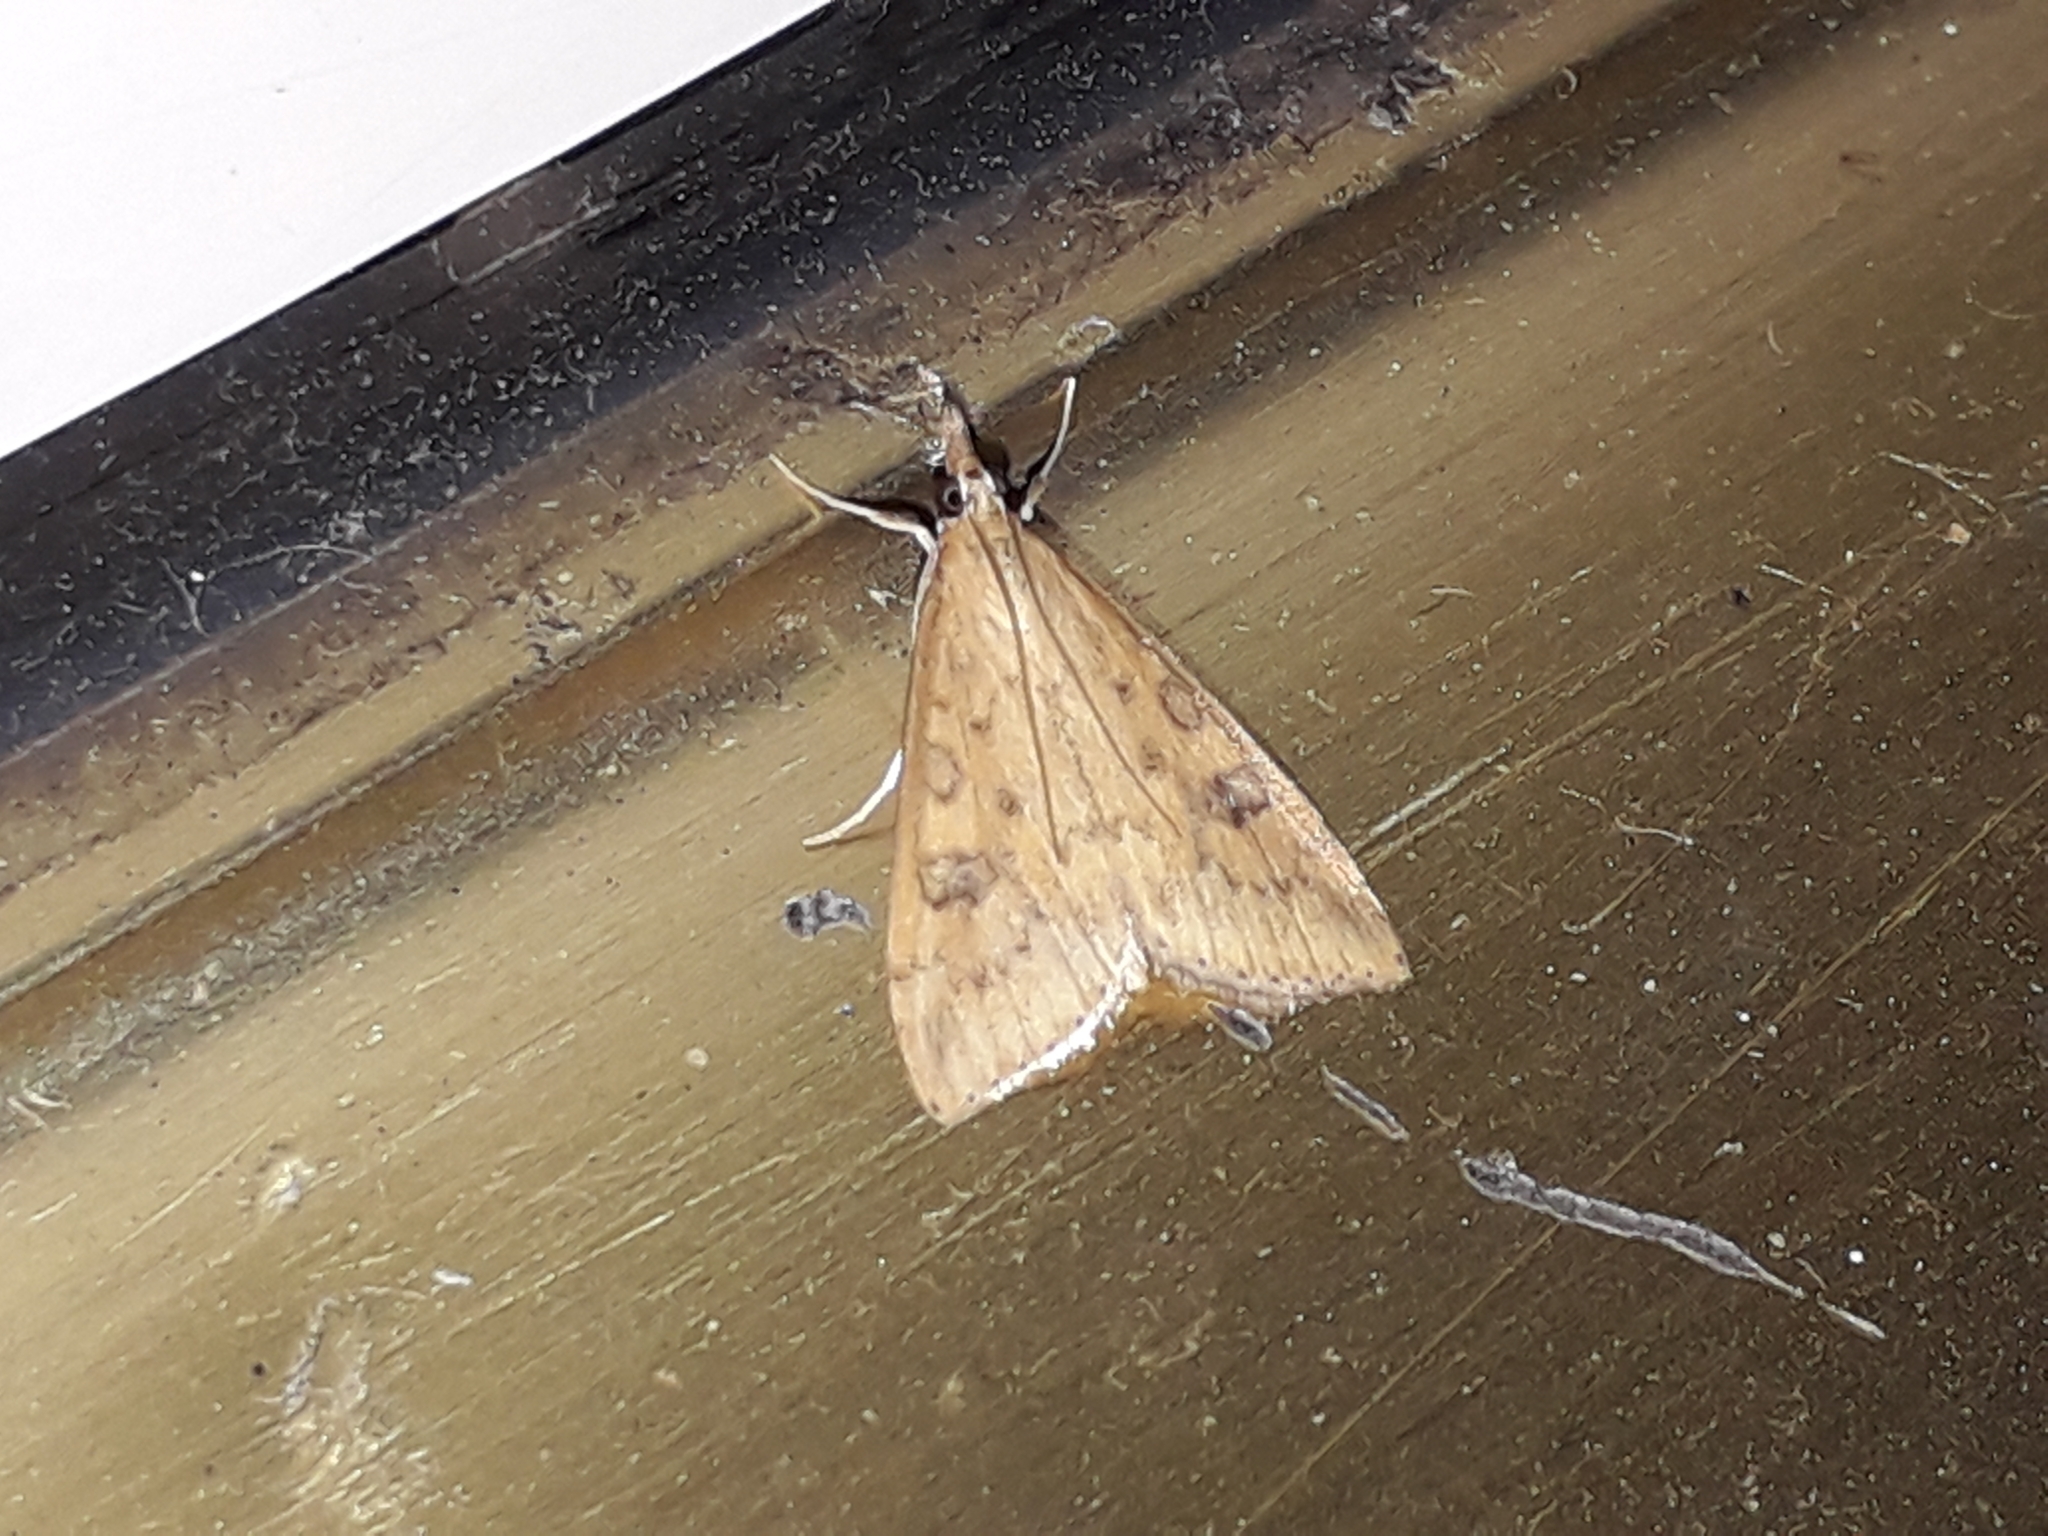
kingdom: Animalia
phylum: Arthropoda
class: Insecta
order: Lepidoptera
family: Crambidae
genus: Udea
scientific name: Udea ferrugalis
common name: Rusty dot
